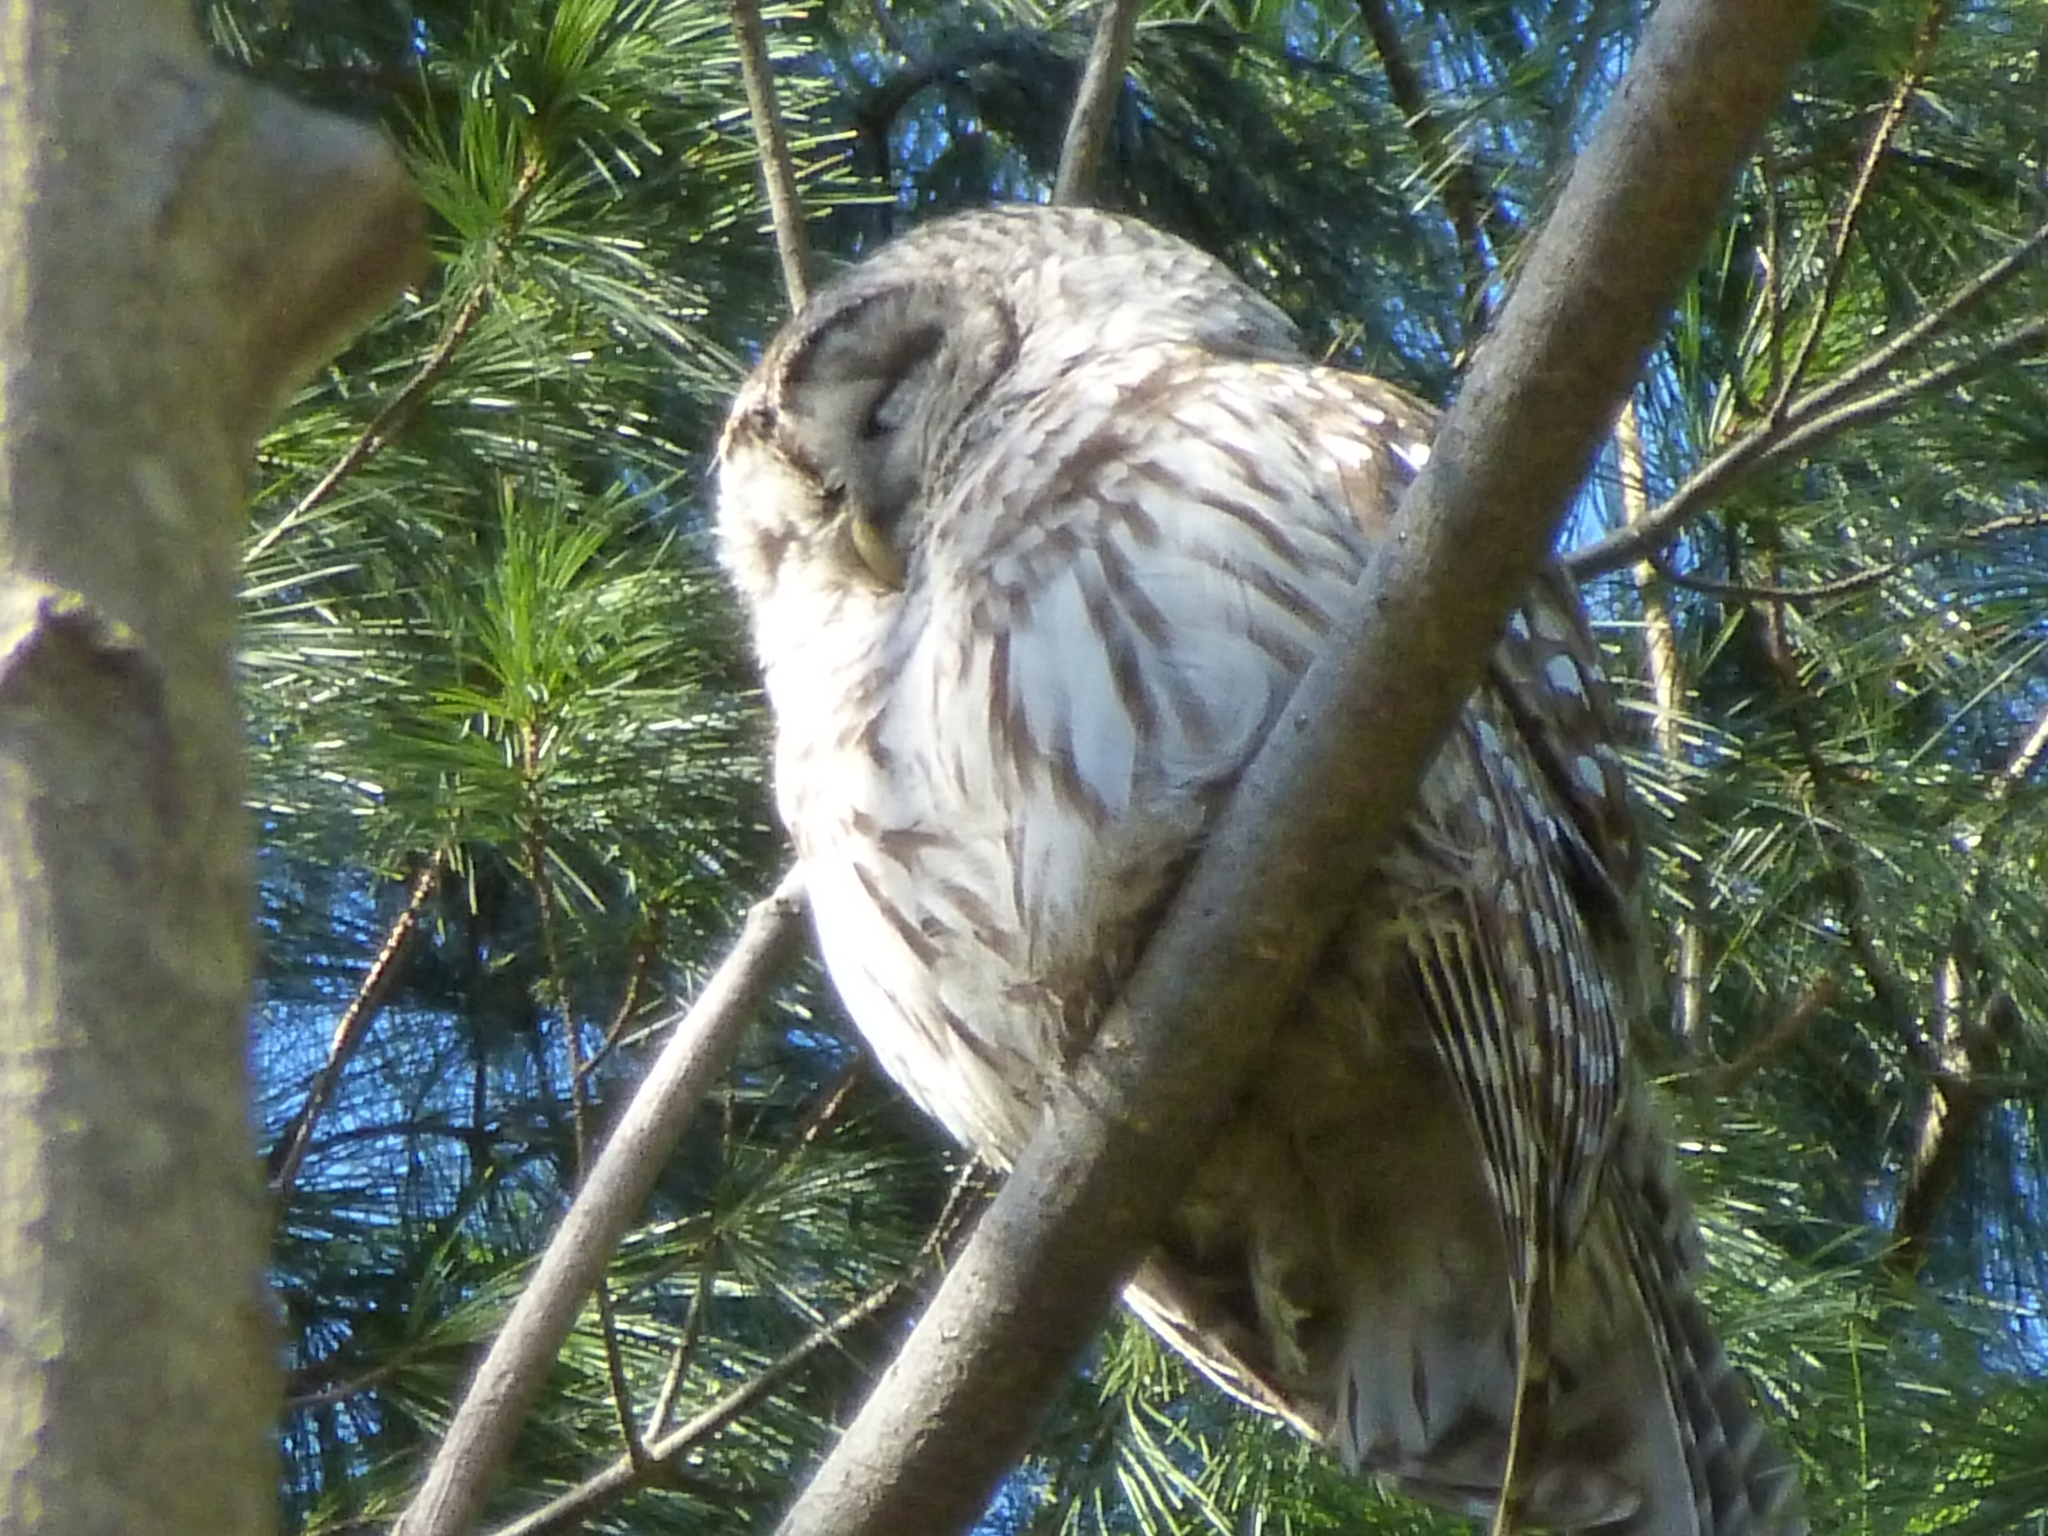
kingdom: Animalia
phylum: Chordata
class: Aves
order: Strigiformes
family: Strigidae
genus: Strix
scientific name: Strix varia
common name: Barred owl
